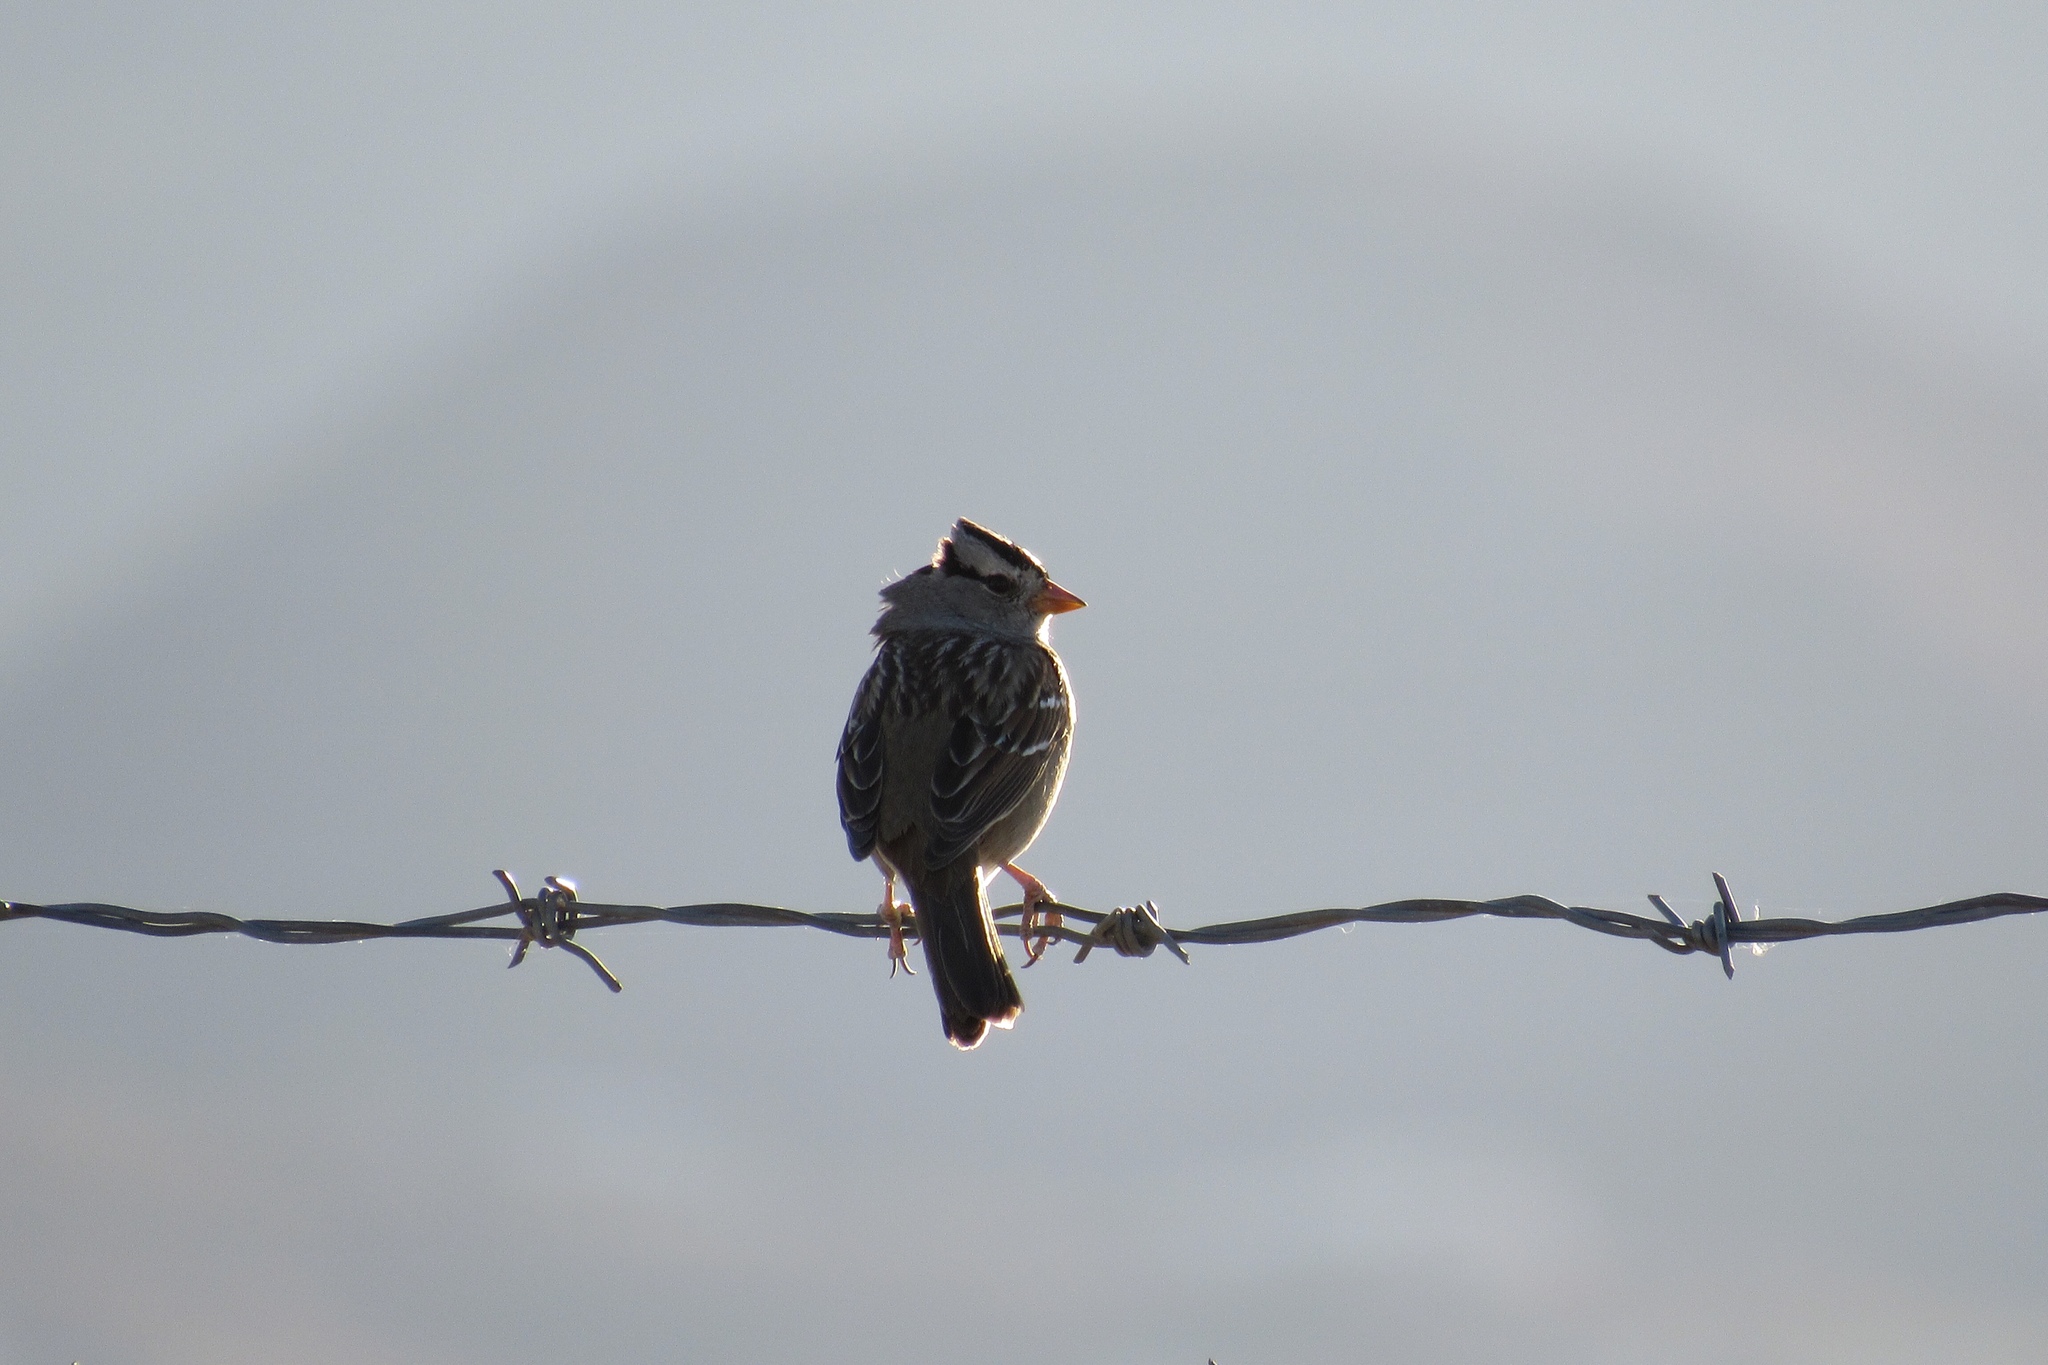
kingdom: Animalia
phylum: Chordata
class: Aves
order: Passeriformes
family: Passerellidae
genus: Zonotrichia
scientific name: Zonotrichia leucophrys
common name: White-crowned sparrow
